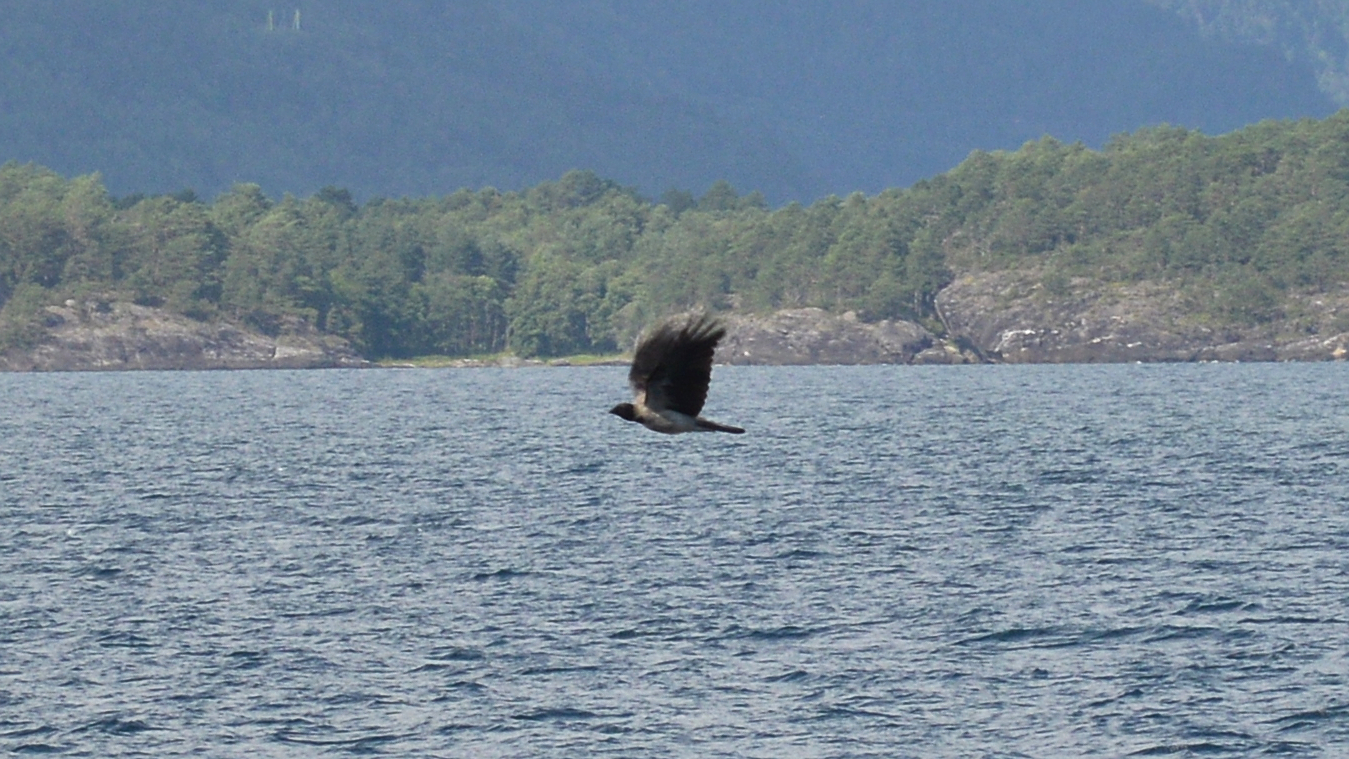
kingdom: Animalia
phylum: Chordata
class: Aves
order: Passeriformes
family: Corvidae
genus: Corvus
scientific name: Corvus cornix
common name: Hooded crow
